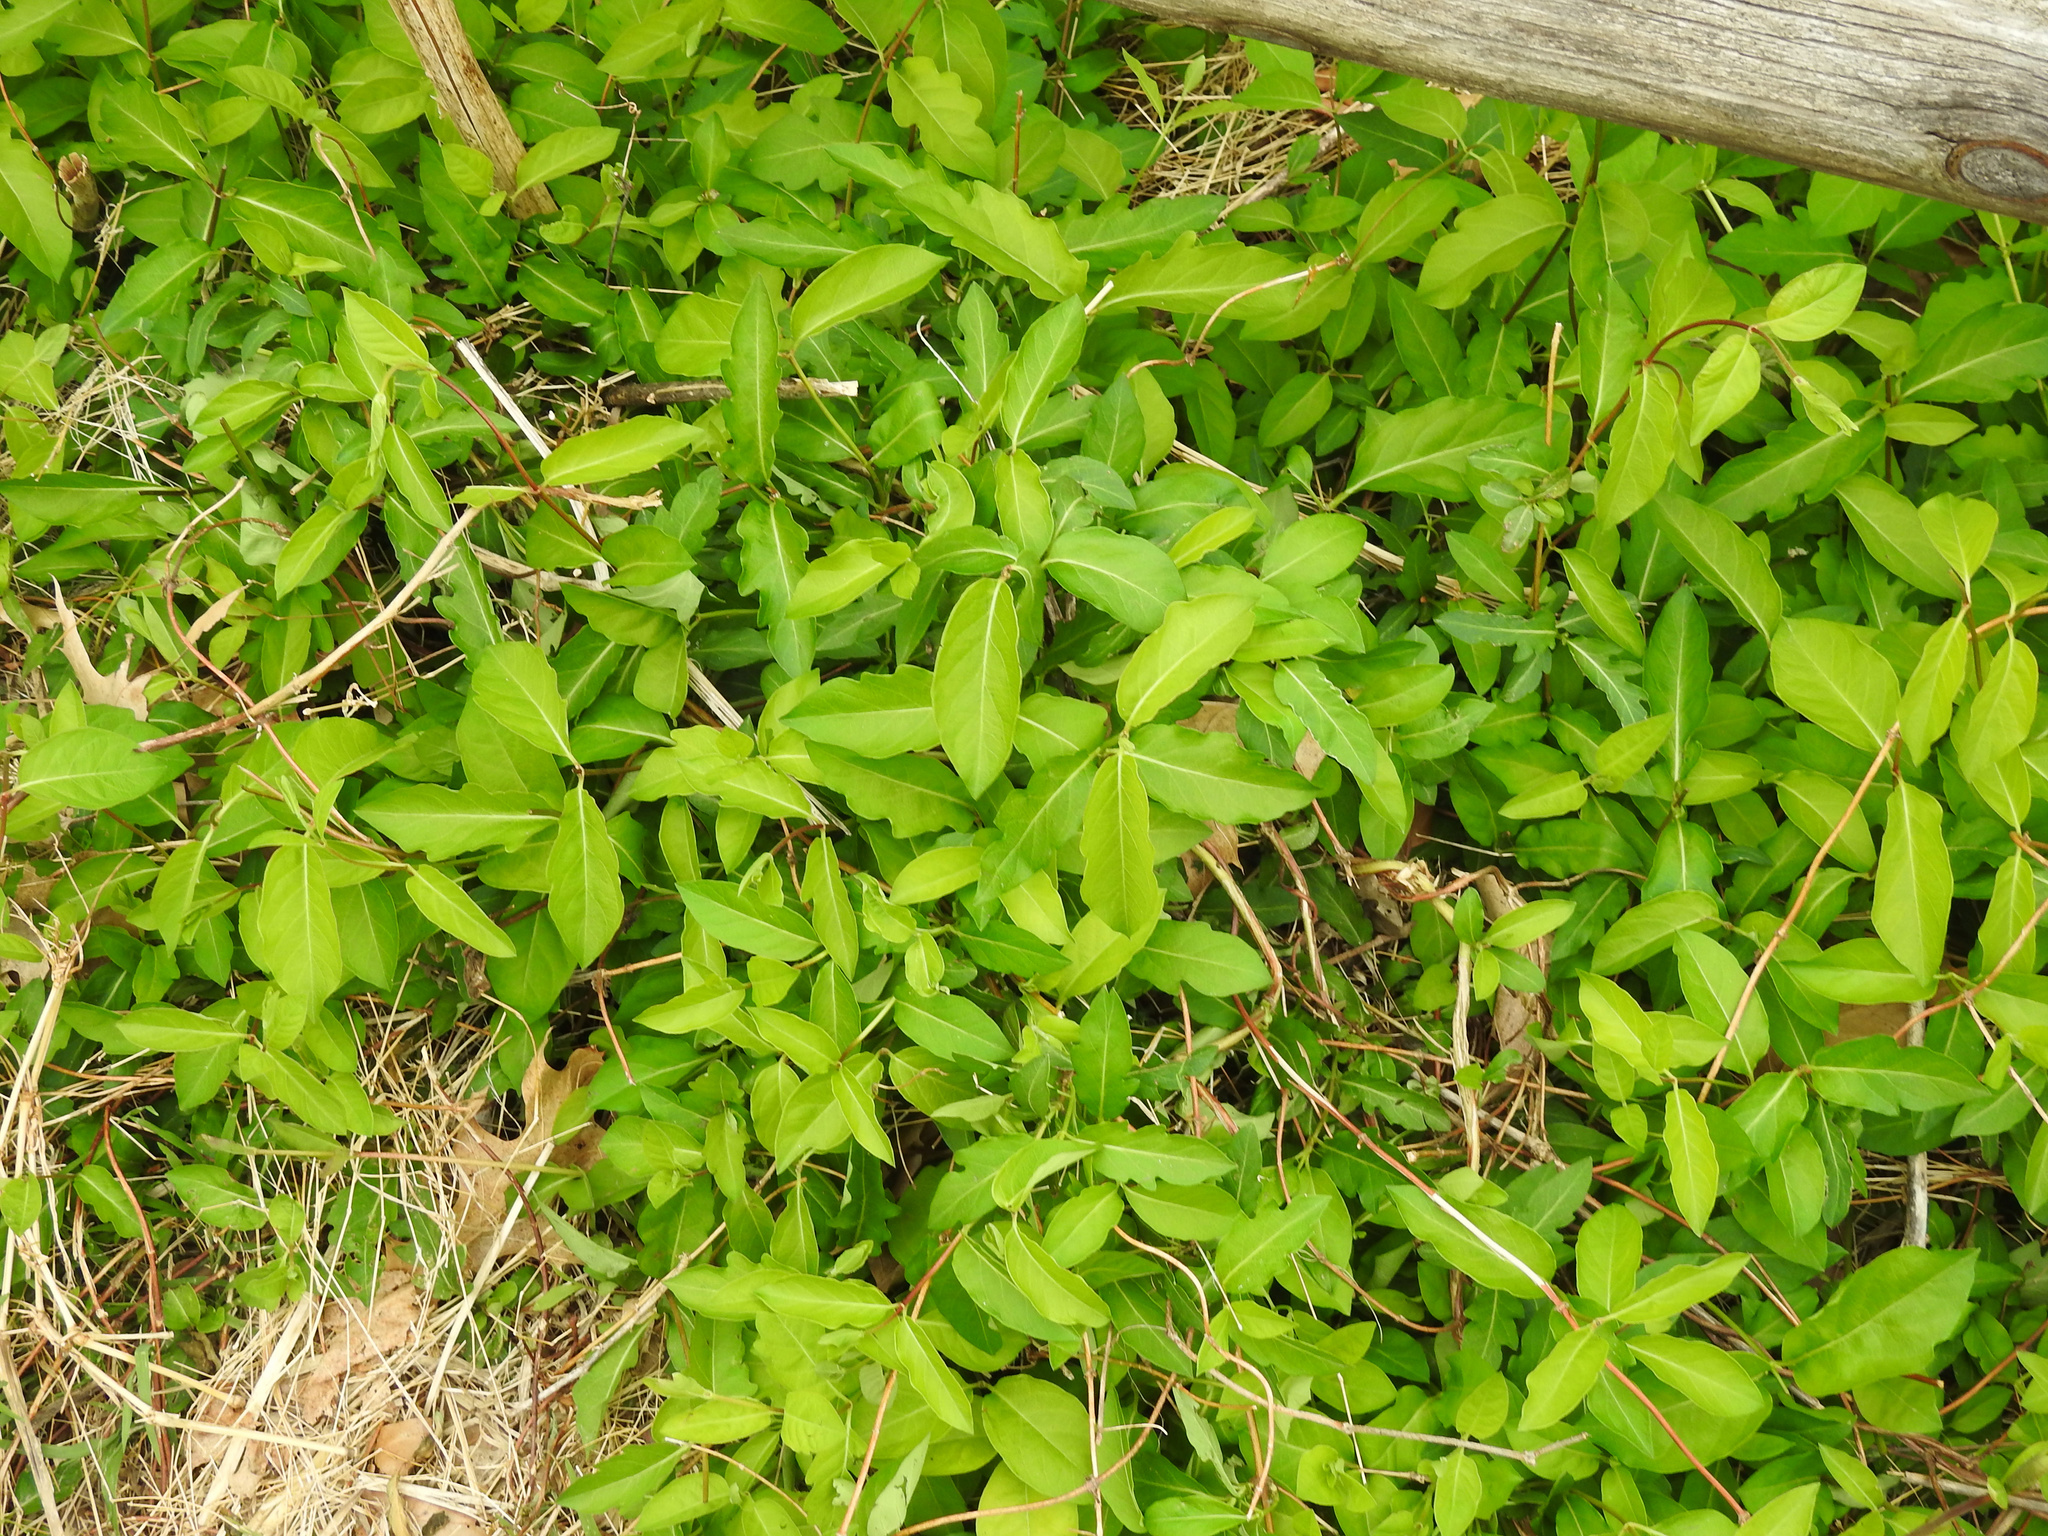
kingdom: Plantae
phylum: Tracheophyta
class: Magnoliopsida
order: Dipsacales
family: Caprifoliaceae
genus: Lonicera
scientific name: Lonicera japonica
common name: Japanese honeysuckle
